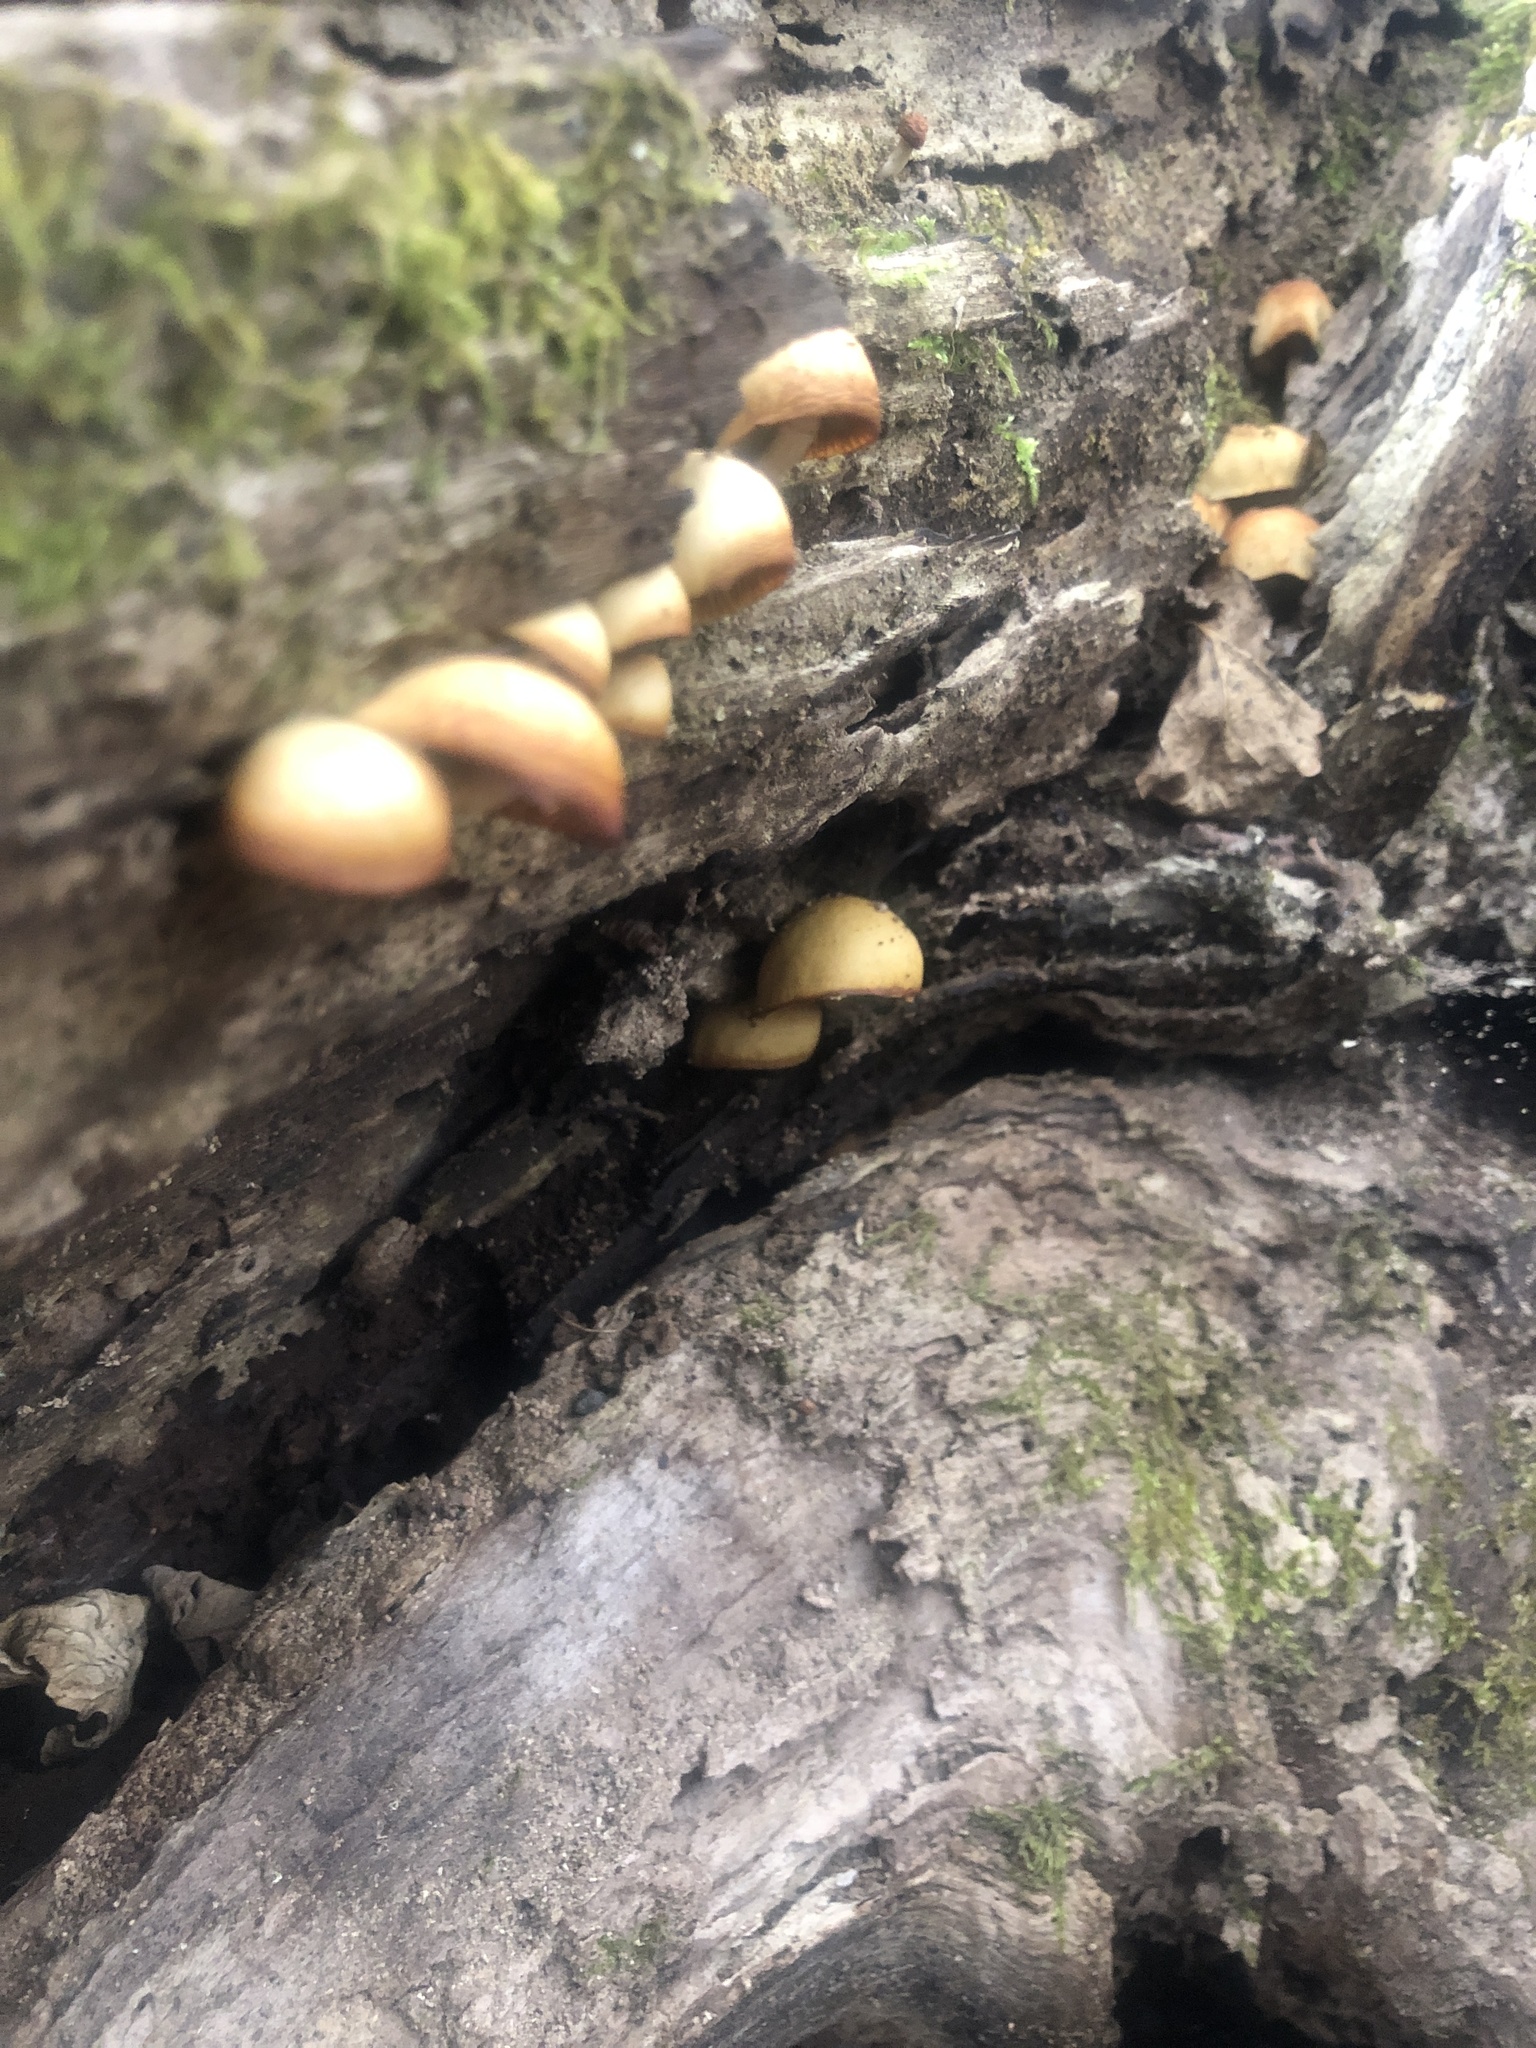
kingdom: Fungi
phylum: Basidiomycota
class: Agaricomycetes
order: Agaricales
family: Hymenogastraceae
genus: Galerina
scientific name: Galerina marginata
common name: Funeral bell
